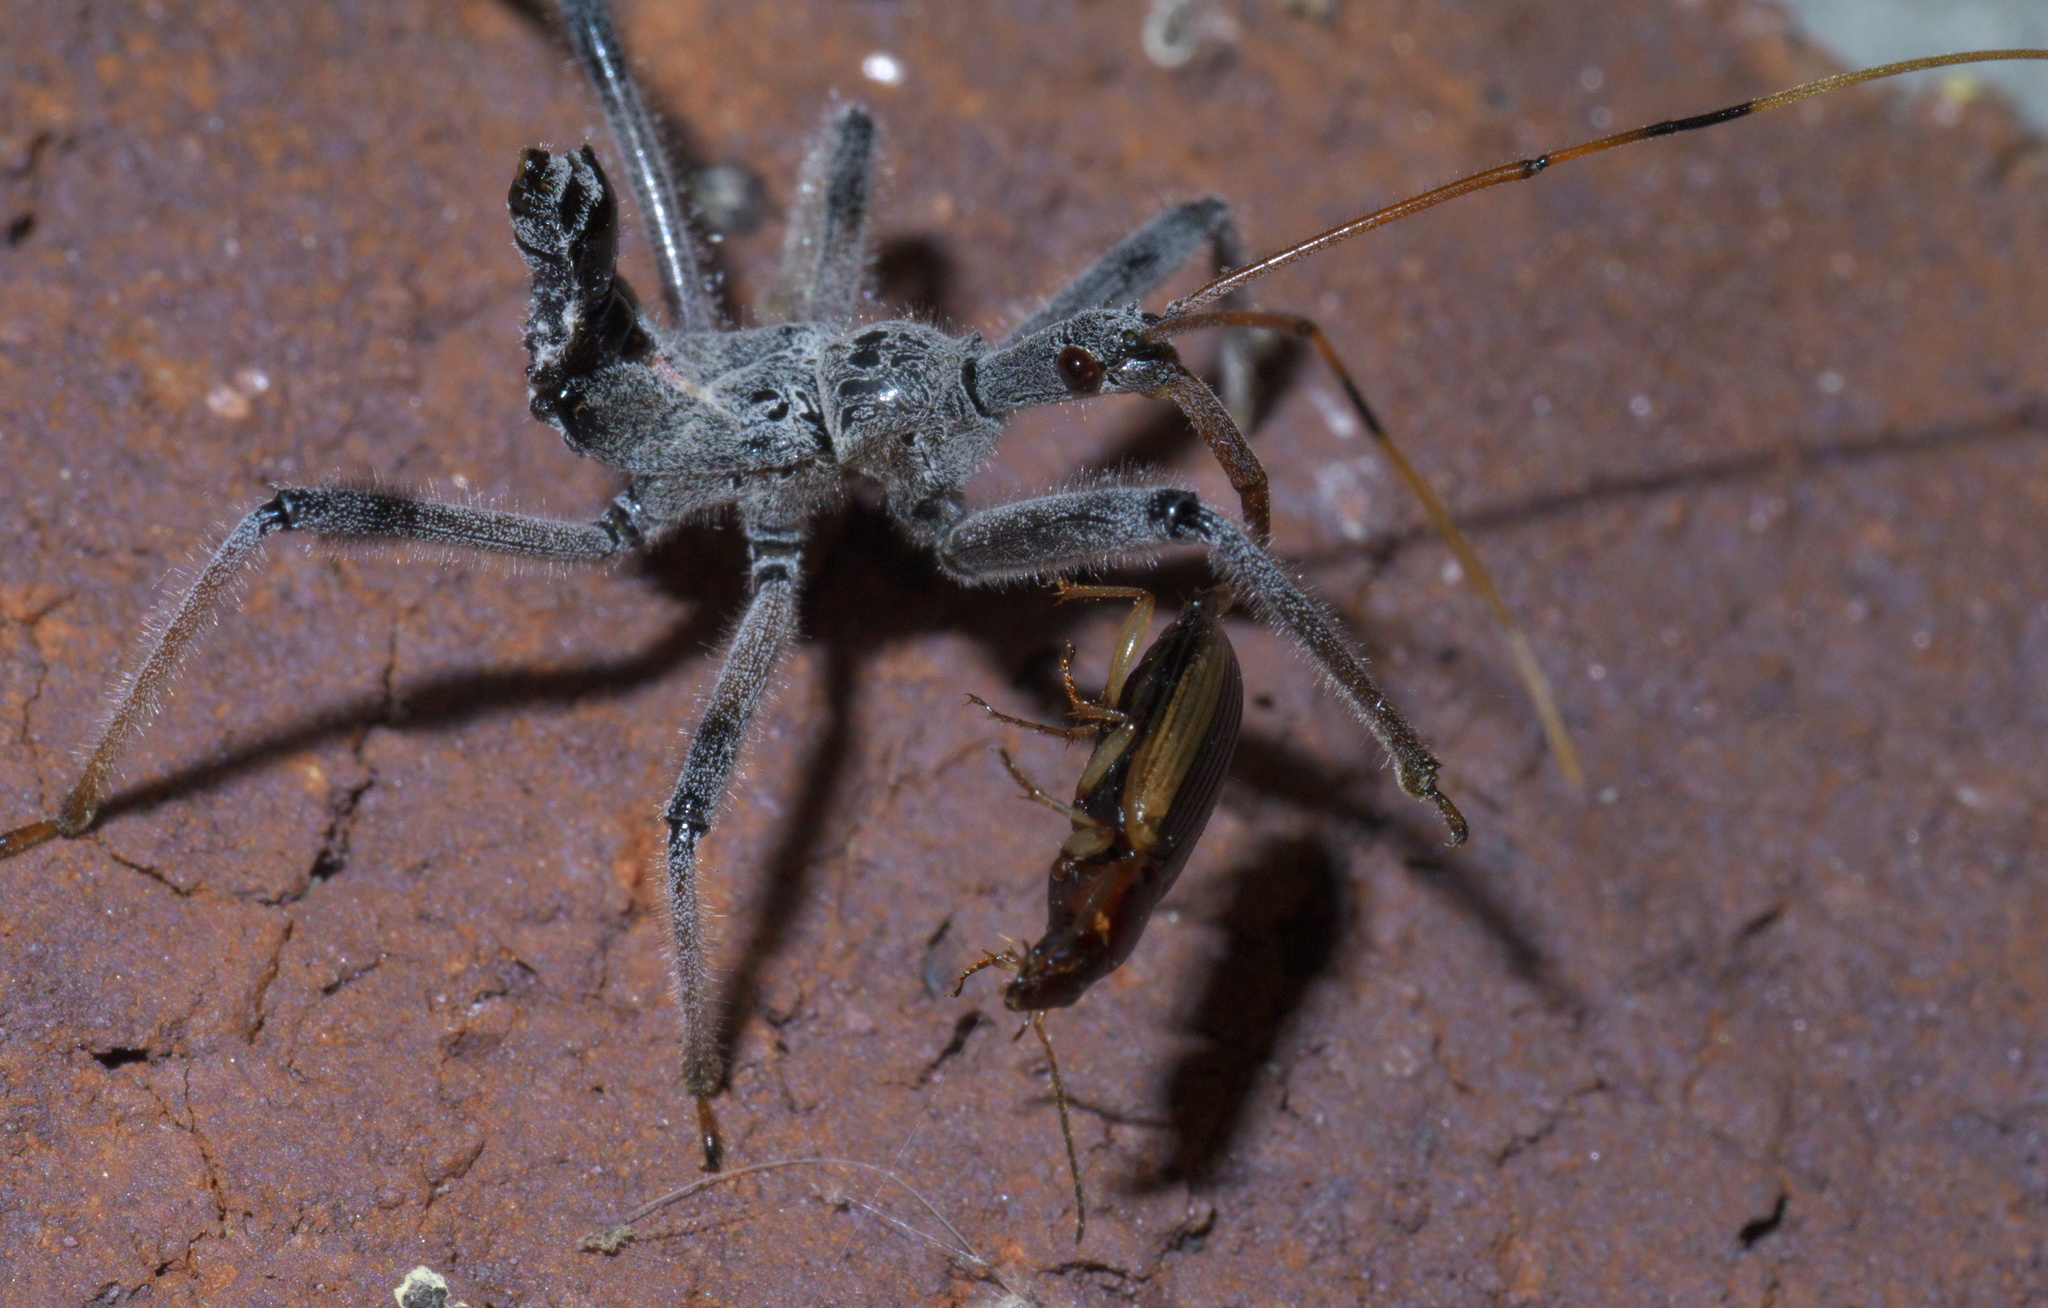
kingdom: Animalia
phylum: Arthropoda
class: Insecta
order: Hemiptera
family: Reduviidae
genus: Arilus
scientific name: Arilus cristatus
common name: North american wheel bug
